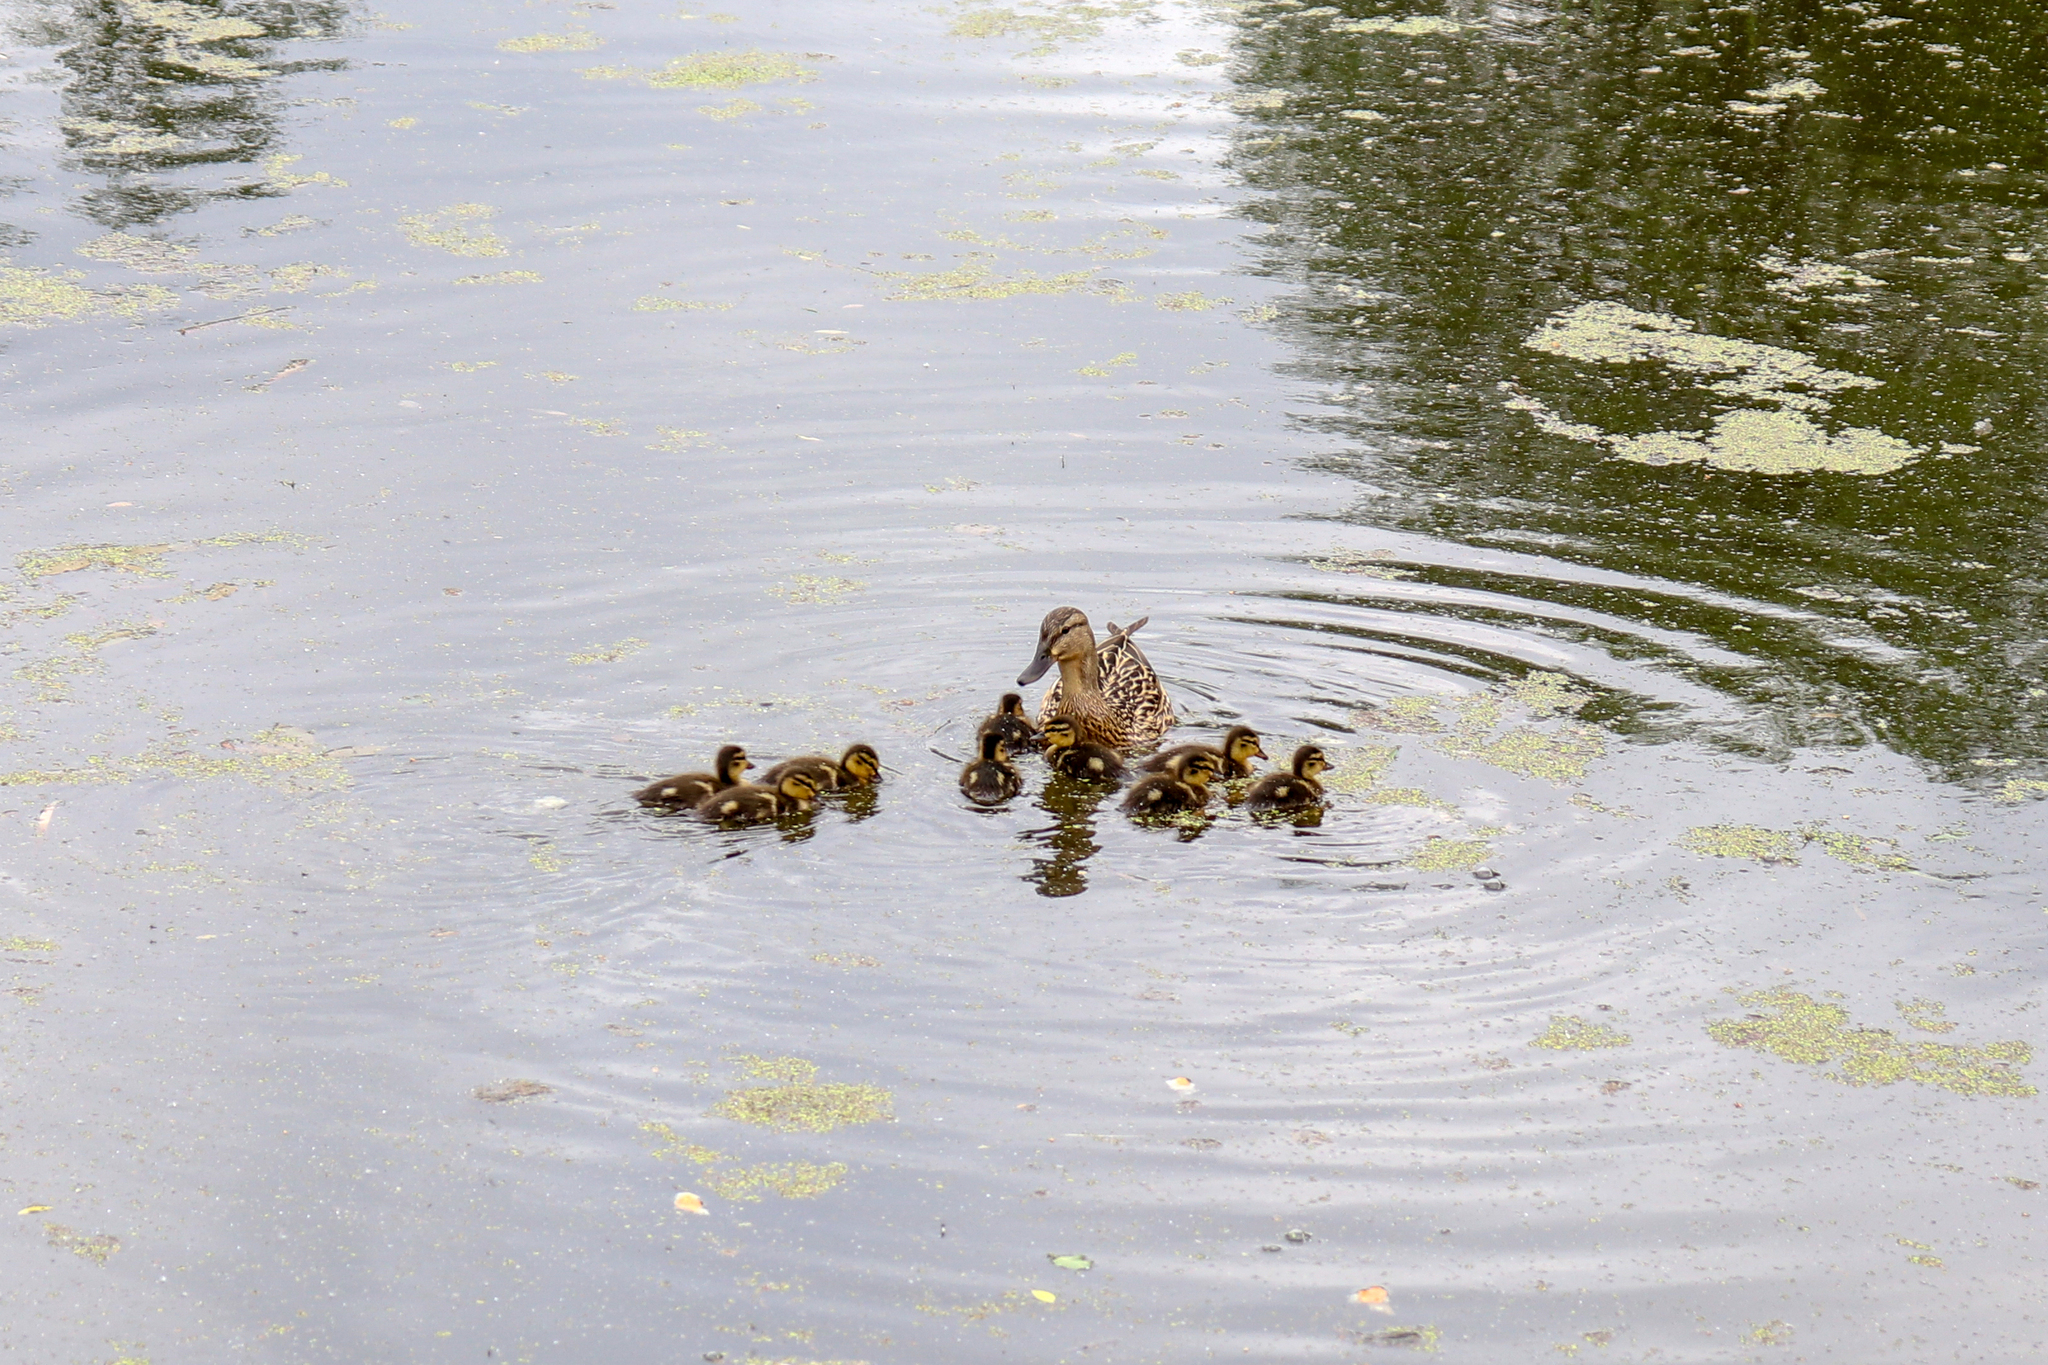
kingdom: Animalia
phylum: Chordata
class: Aves
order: Anseriformes
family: Anatidae
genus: Anas
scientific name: Anas platyrhynchos
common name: Mallard
